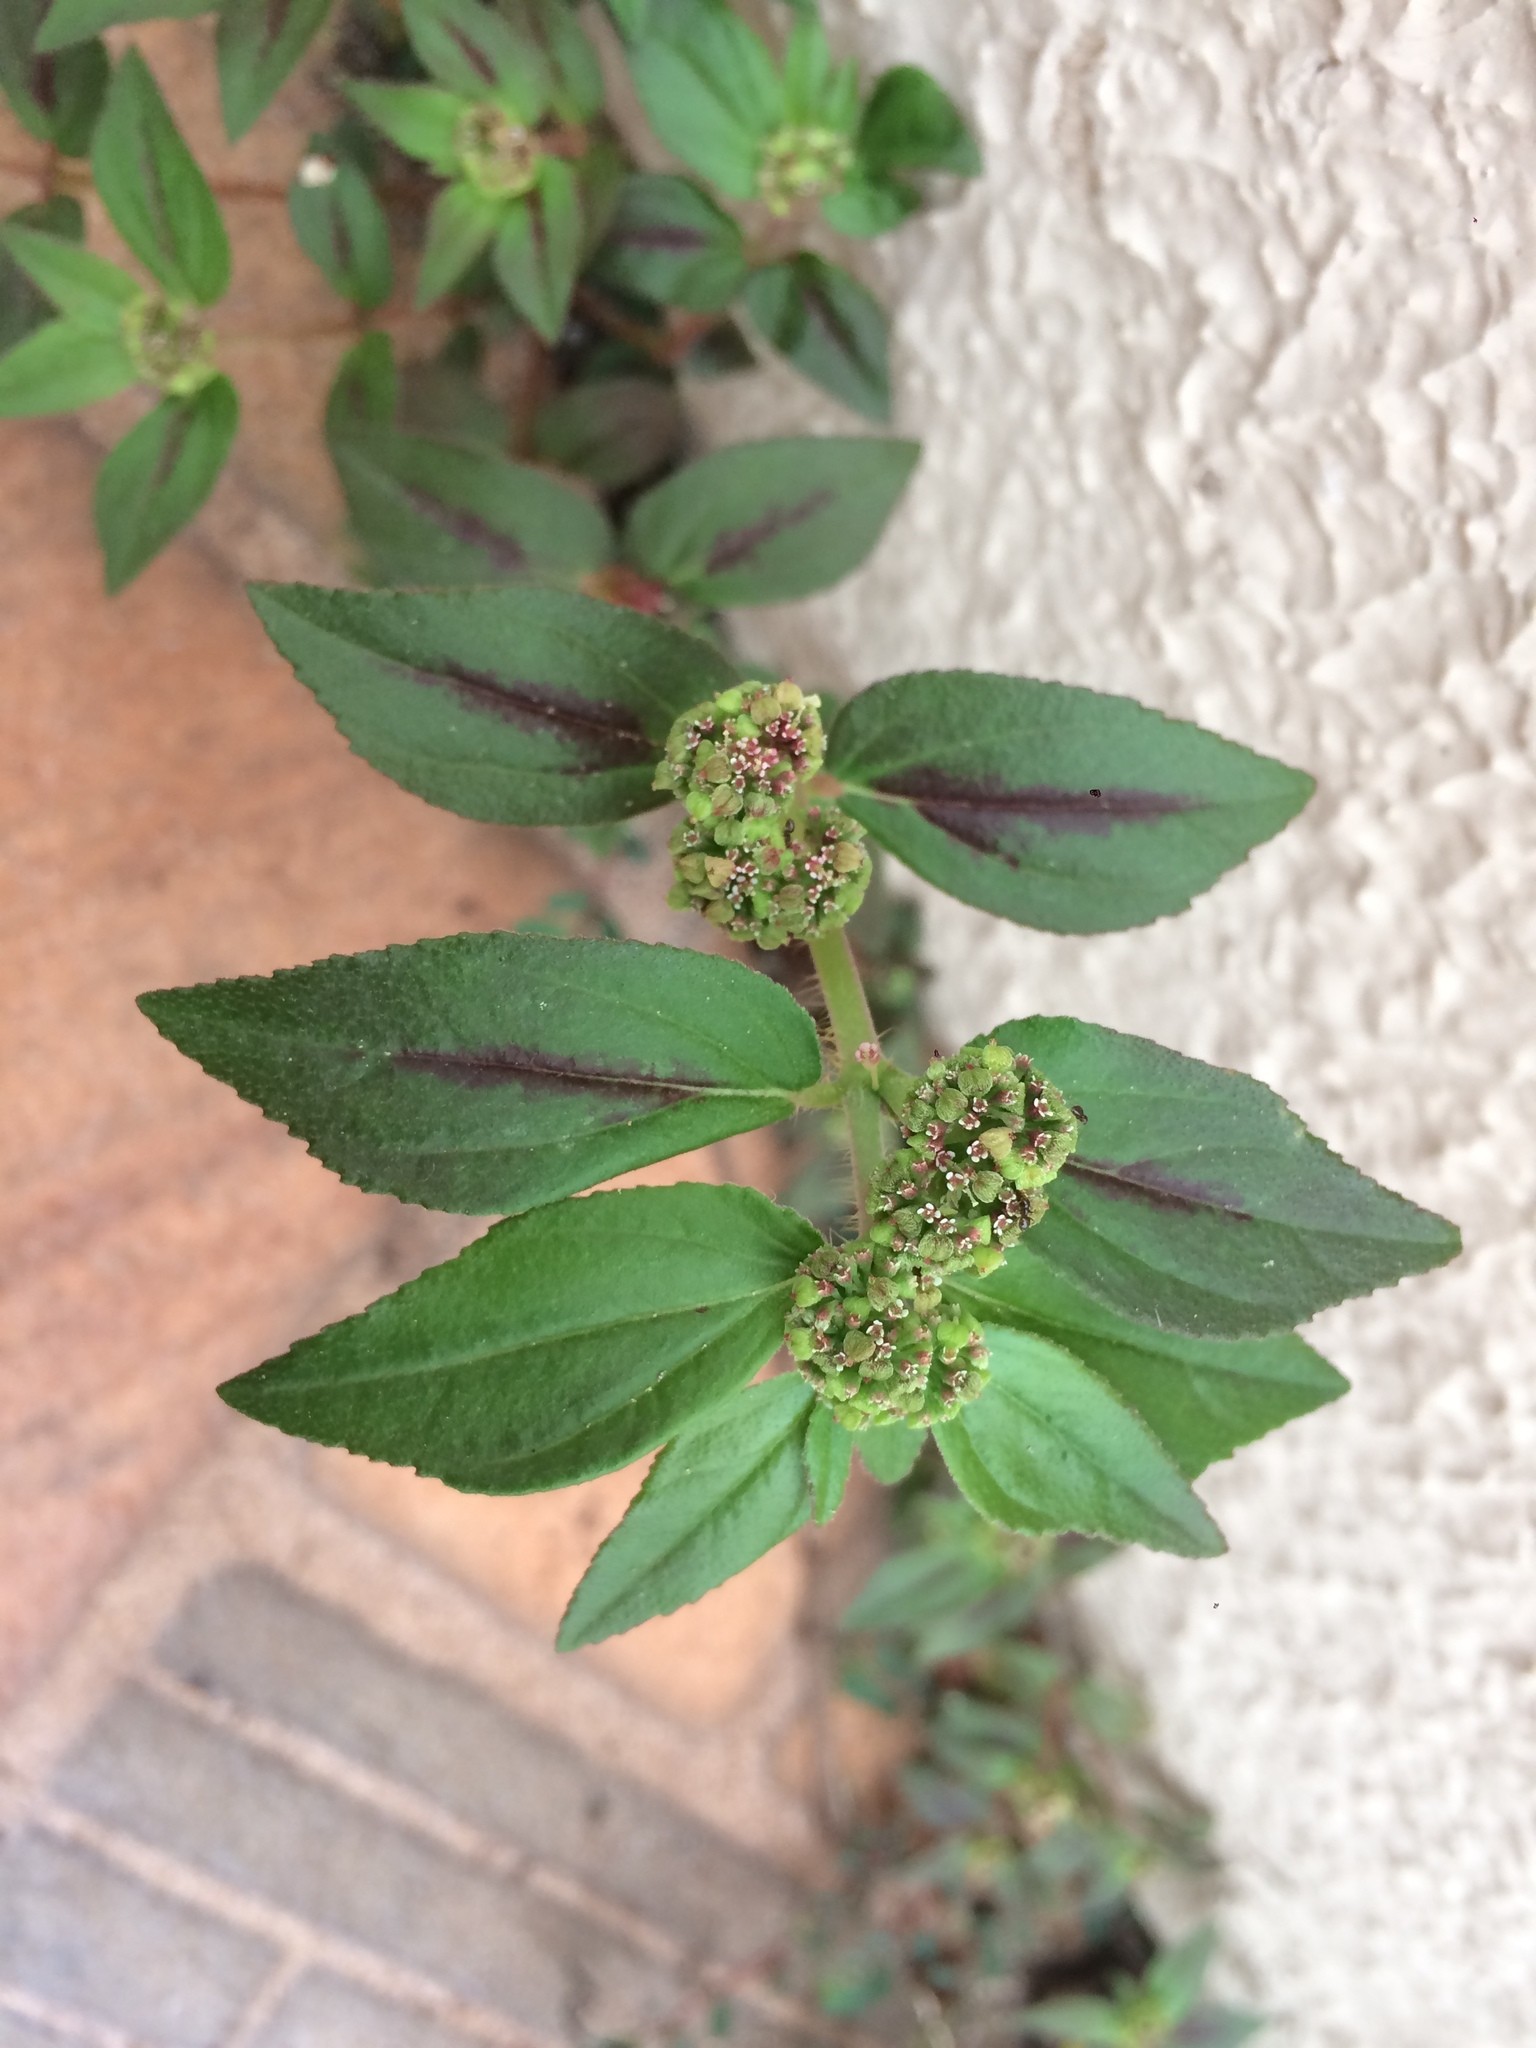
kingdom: Plantae
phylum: Tracheophyta
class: Magnoliopsida
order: Malpighiales
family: Euphorbiaceae
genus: Euphorbia
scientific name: Euphorbia hirta
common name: Pillpod sandmat
